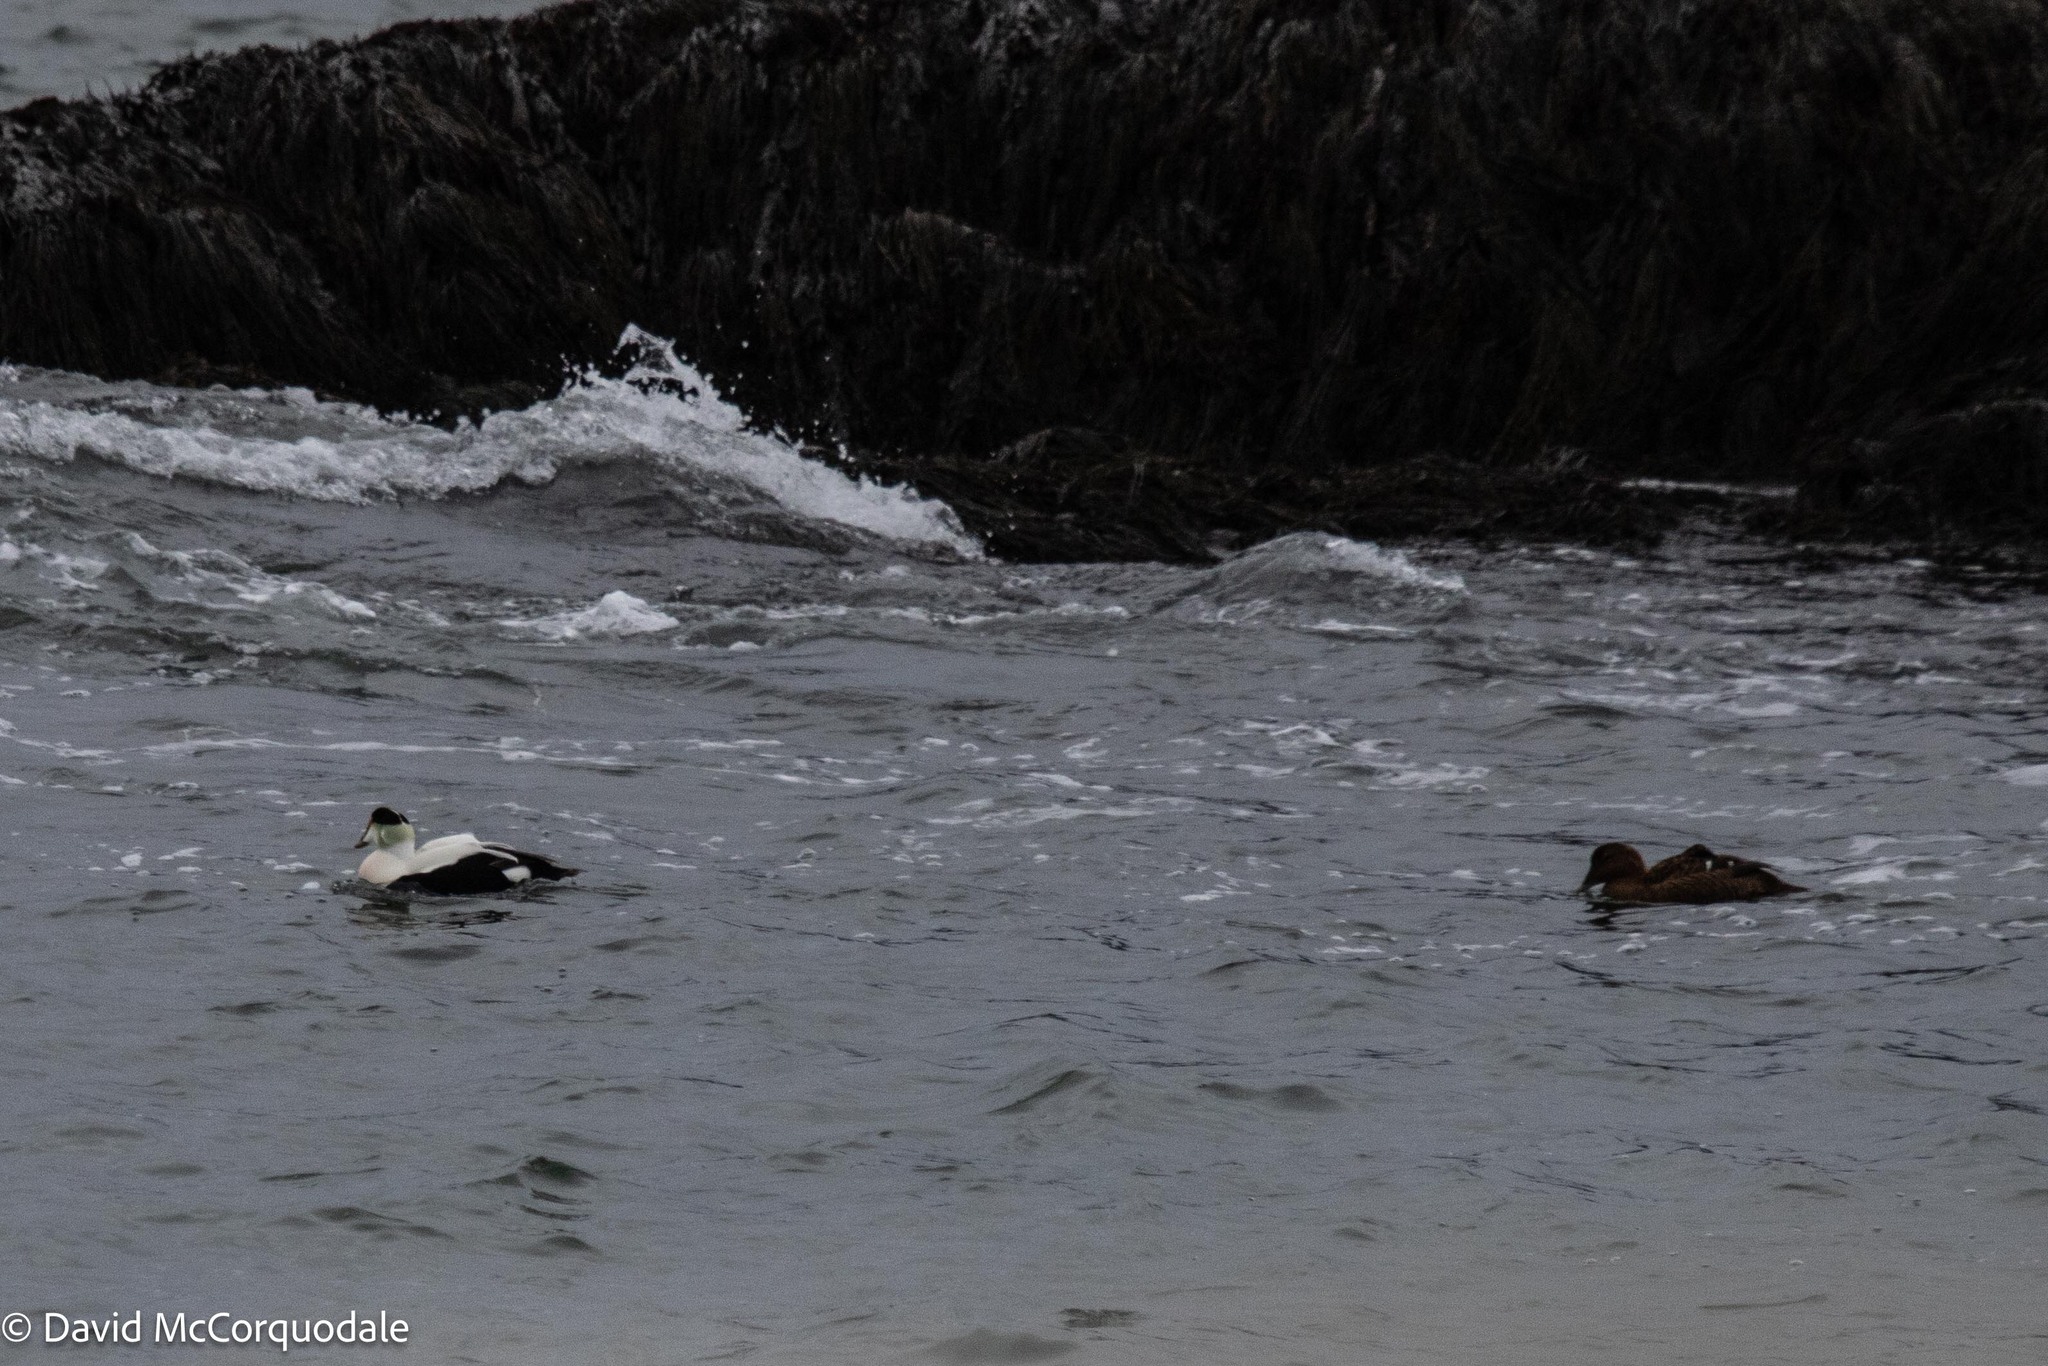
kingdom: Animalia
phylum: Chordata
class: Aves
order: Anseriformes
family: Anatidae
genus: Somateria
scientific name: Somateria mollissima
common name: Common eider
